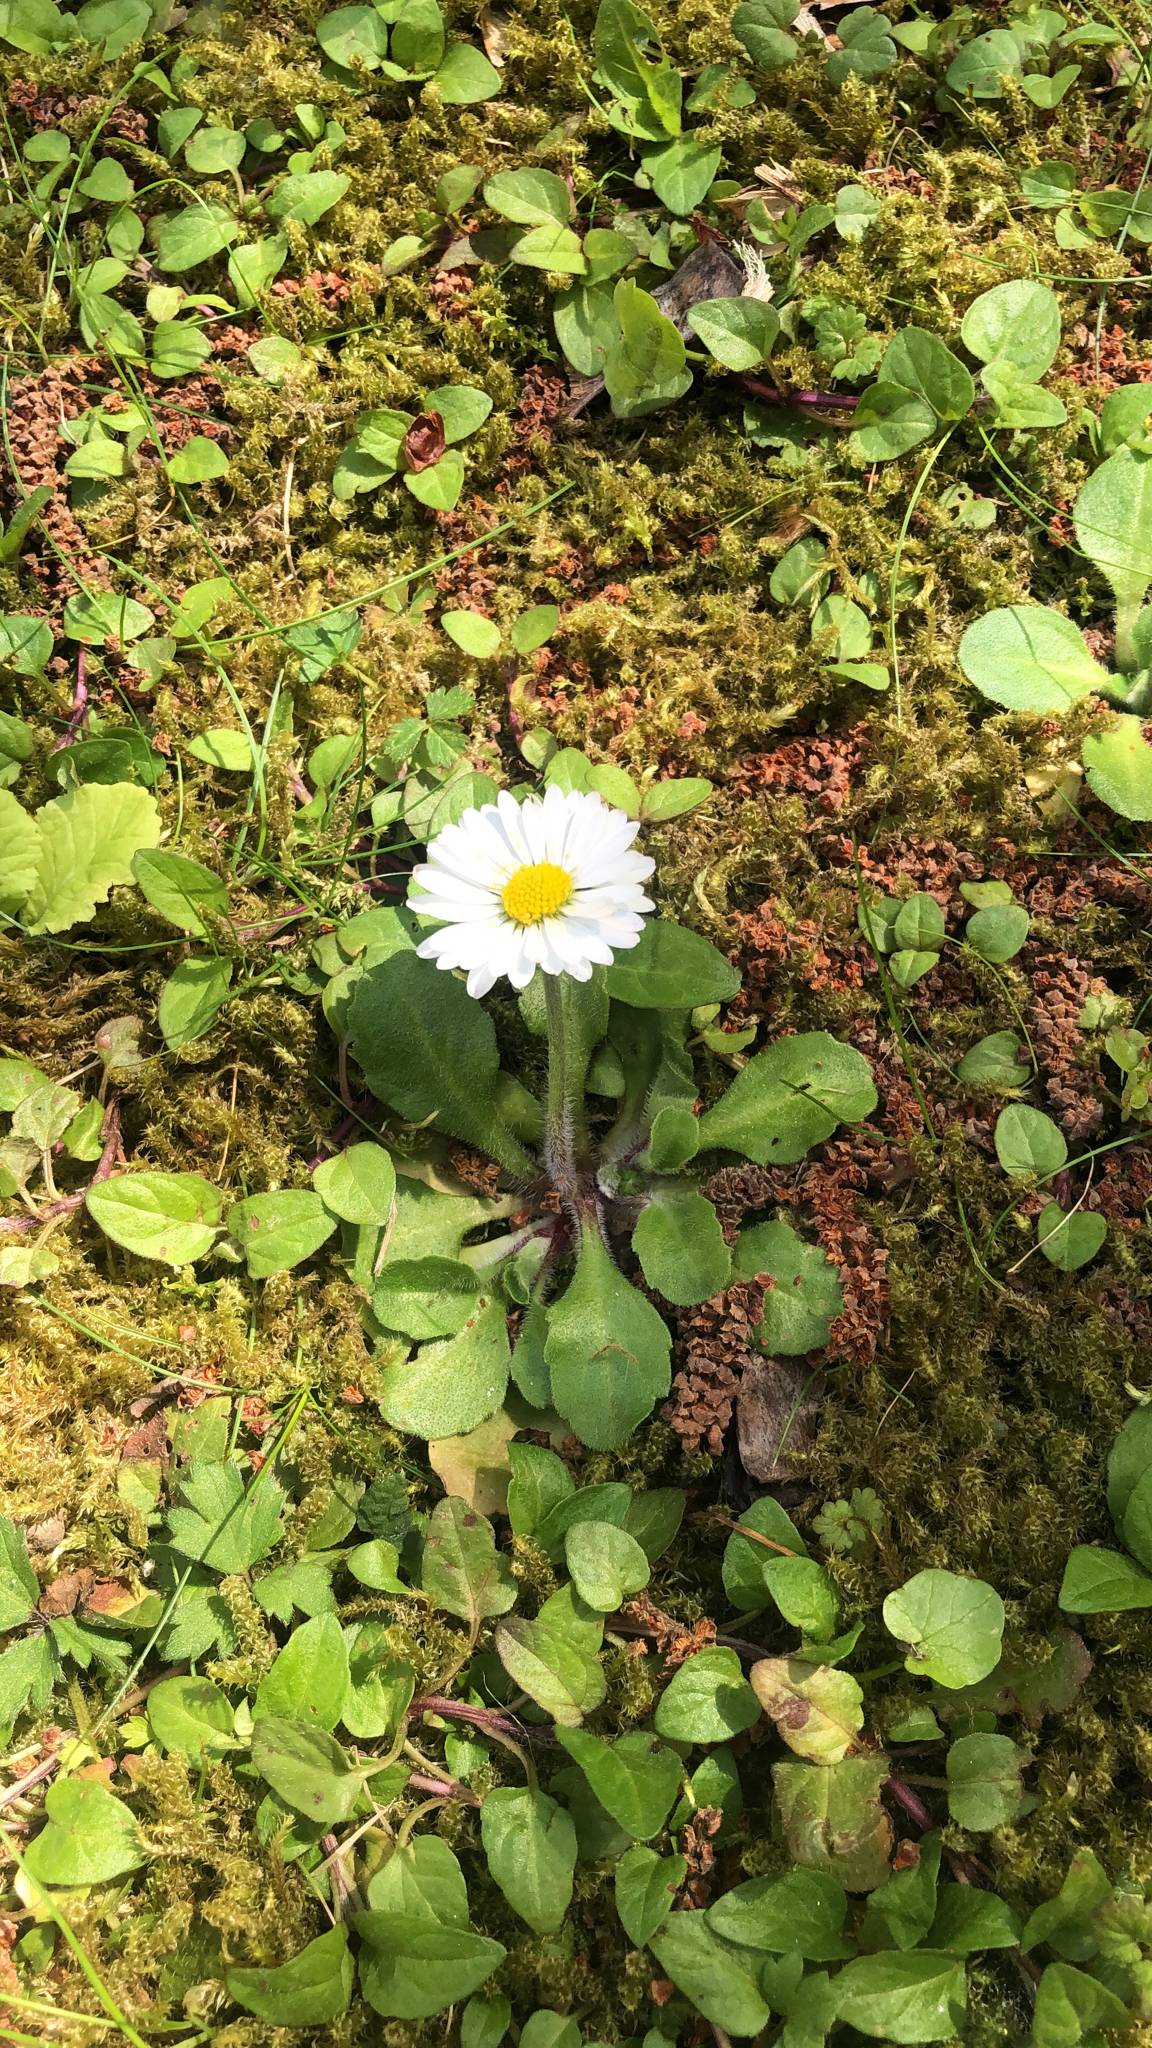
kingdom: Plantae
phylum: Tracheophyta
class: Magnoliopsida
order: Asterales
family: Asteraceae
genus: Bellis
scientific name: Bellis perennis
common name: Lawndaisy
